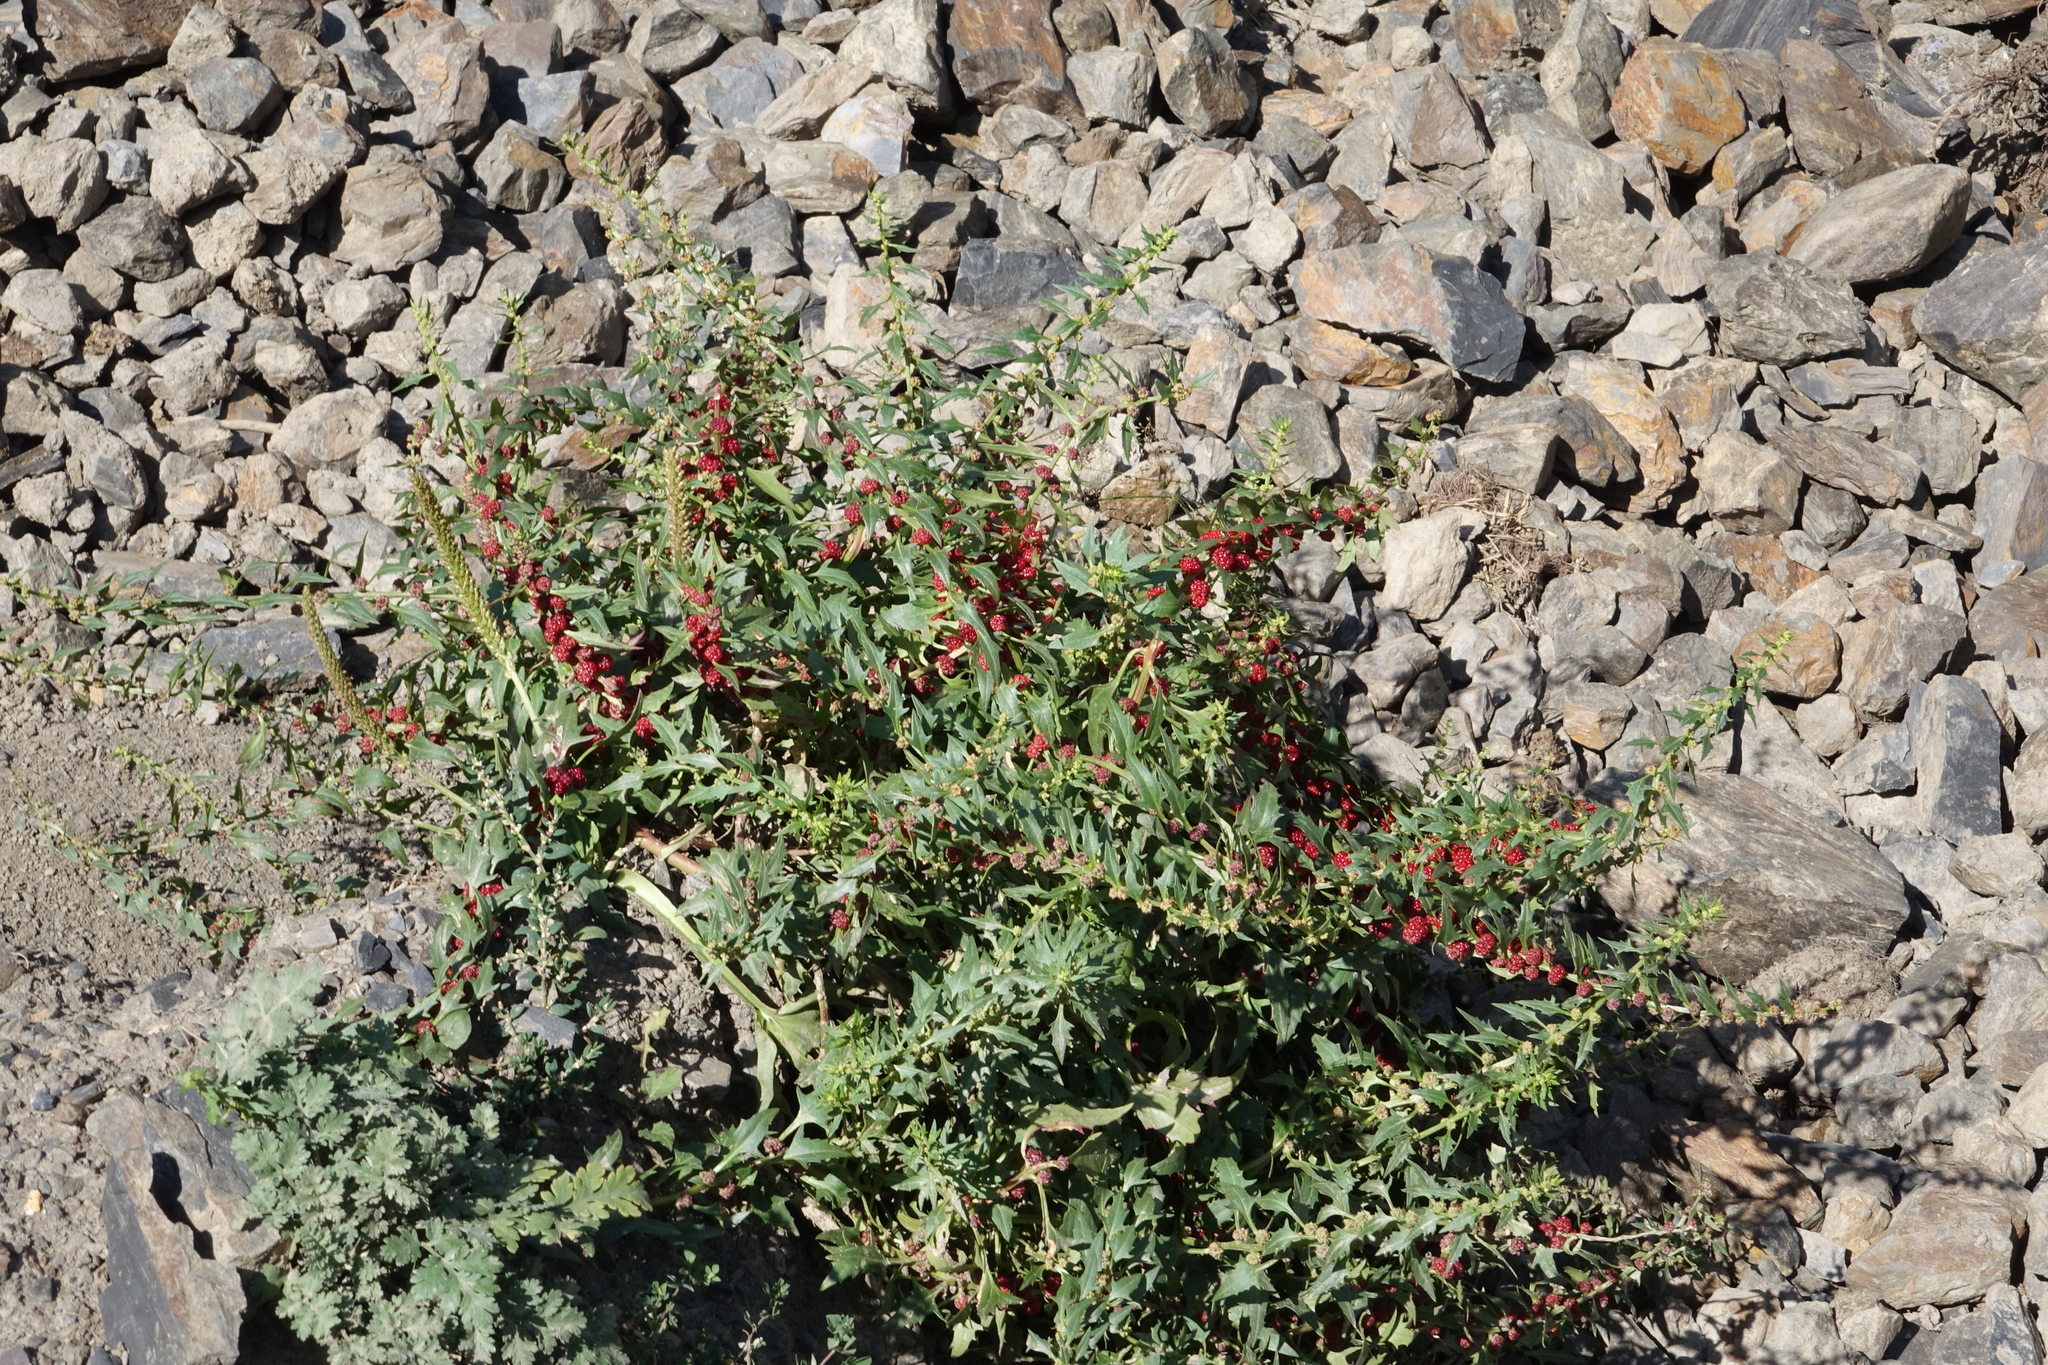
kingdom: Plantae
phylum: Tracheophyta
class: Magnoliopsida
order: Caryophyllales
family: Amaranthaceae
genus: Blitum
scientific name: Blitum virgatum
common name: Strawberry goosefoot
